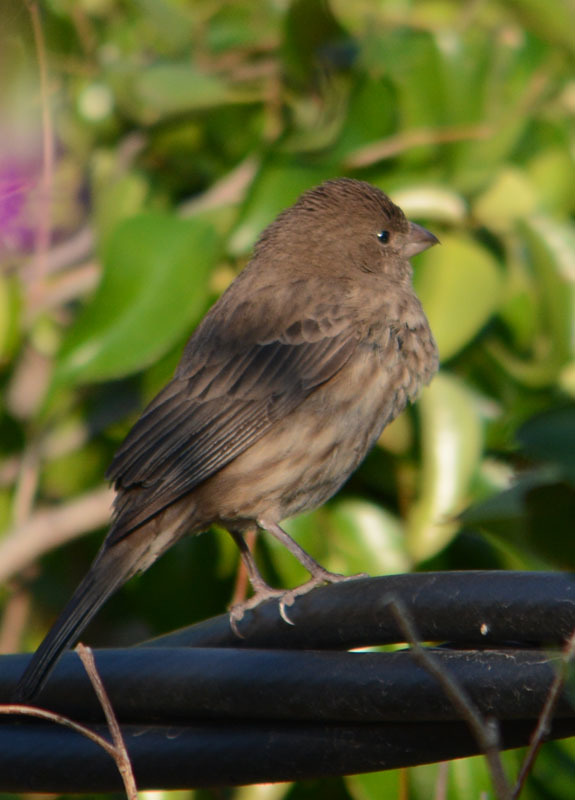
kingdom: Animalia
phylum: Chordata
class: Aves
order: Passeriformes
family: Fringillidae
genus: Haemorhous
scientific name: Haemorhous mexicanus
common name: House finch
